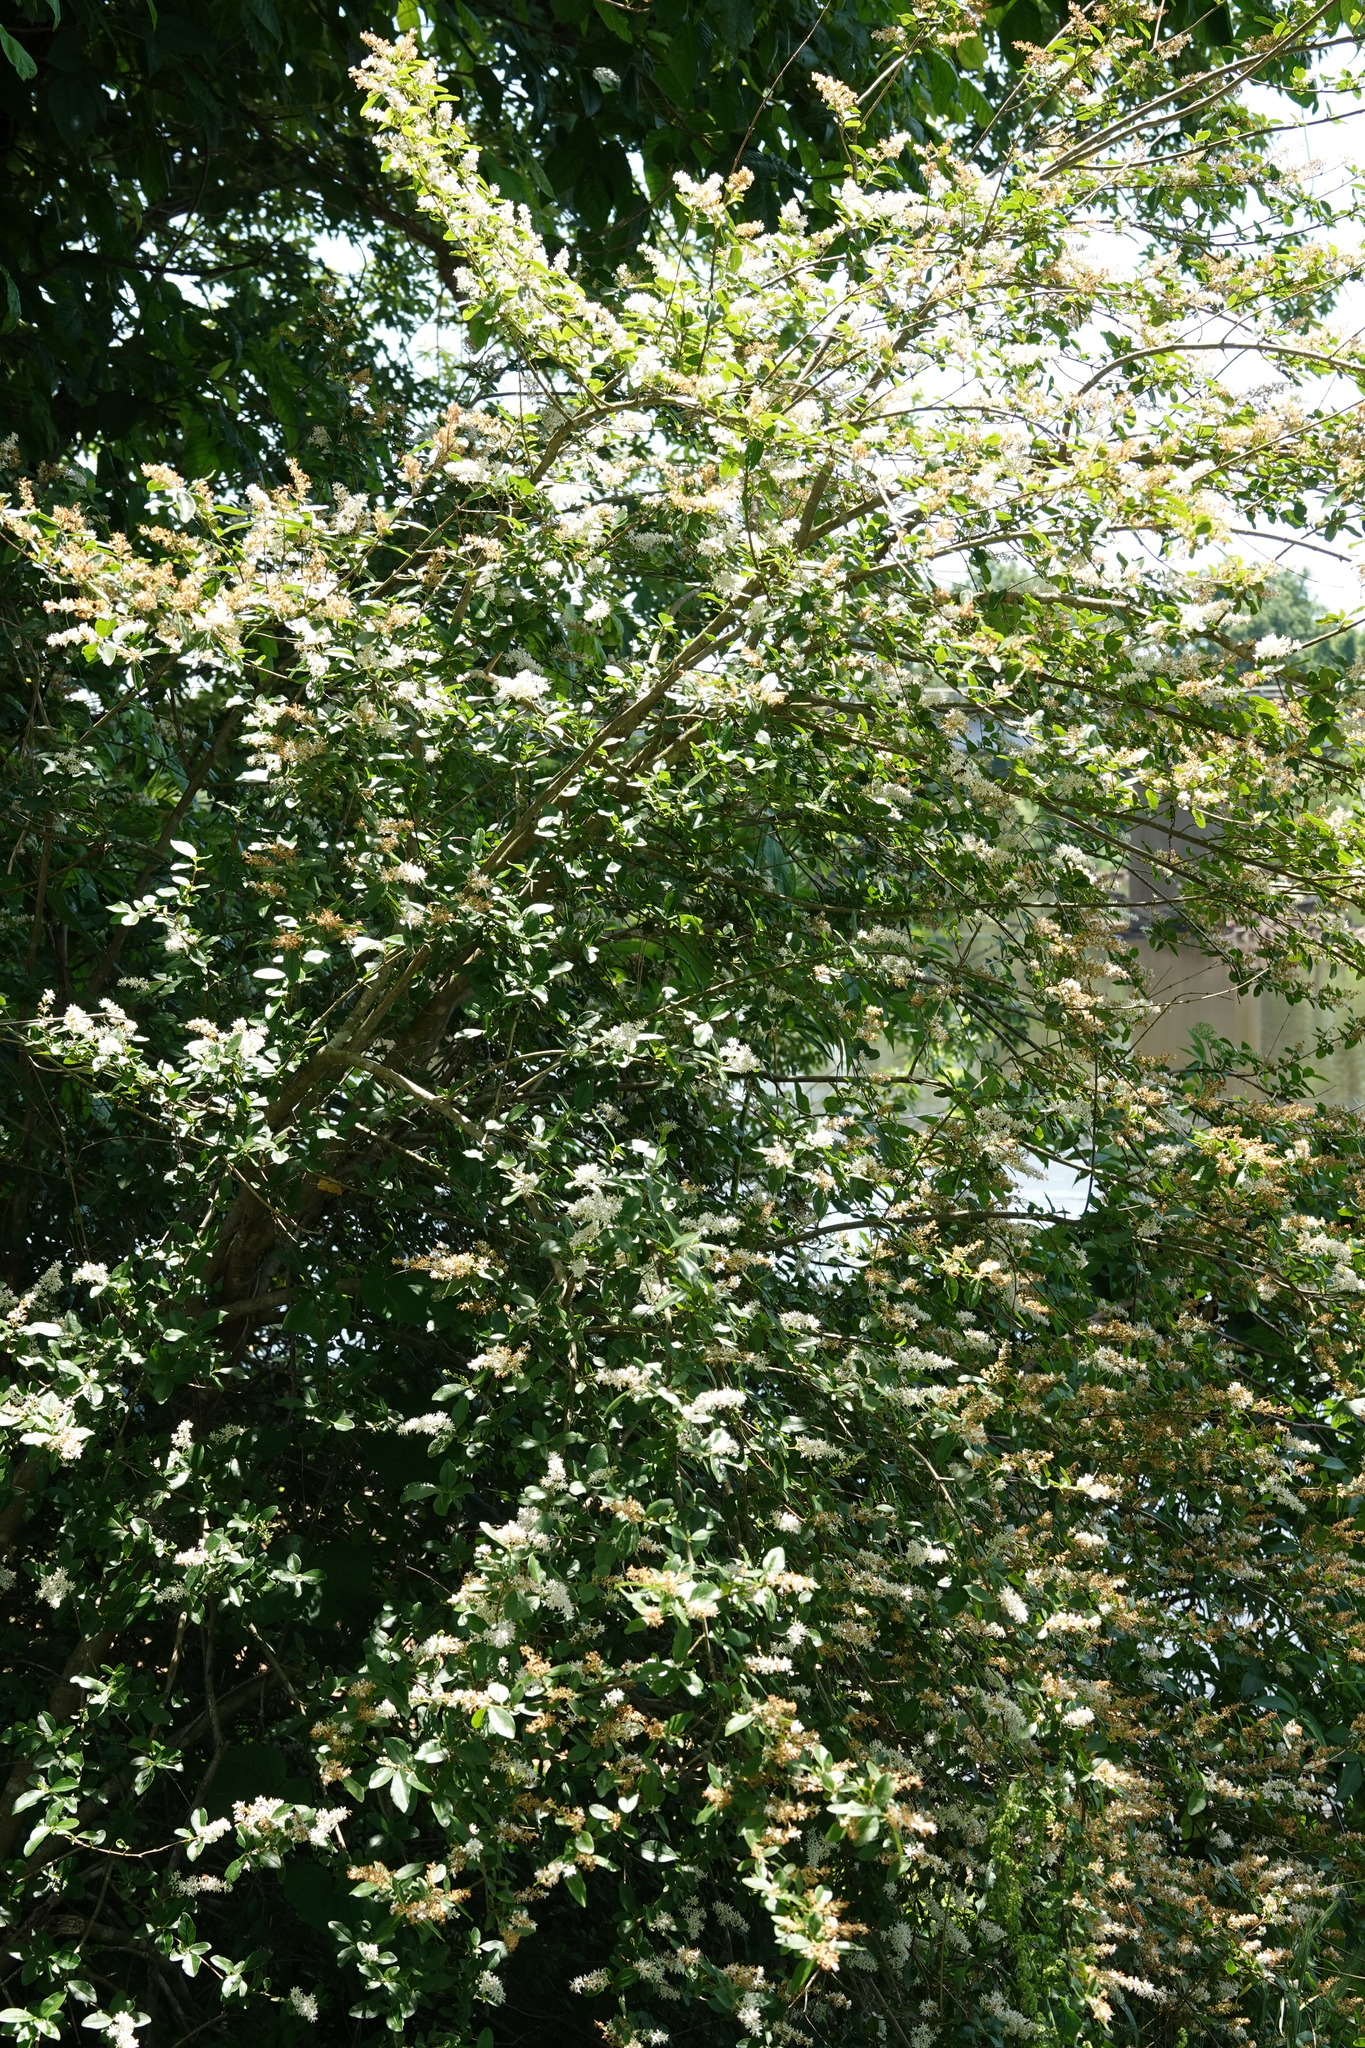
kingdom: Plantae
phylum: Tracheophyta
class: Magnoliopsida
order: Lamiales
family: Oleaceae
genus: Ligustrum
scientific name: Ligustrum sinense
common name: Chinese privet
